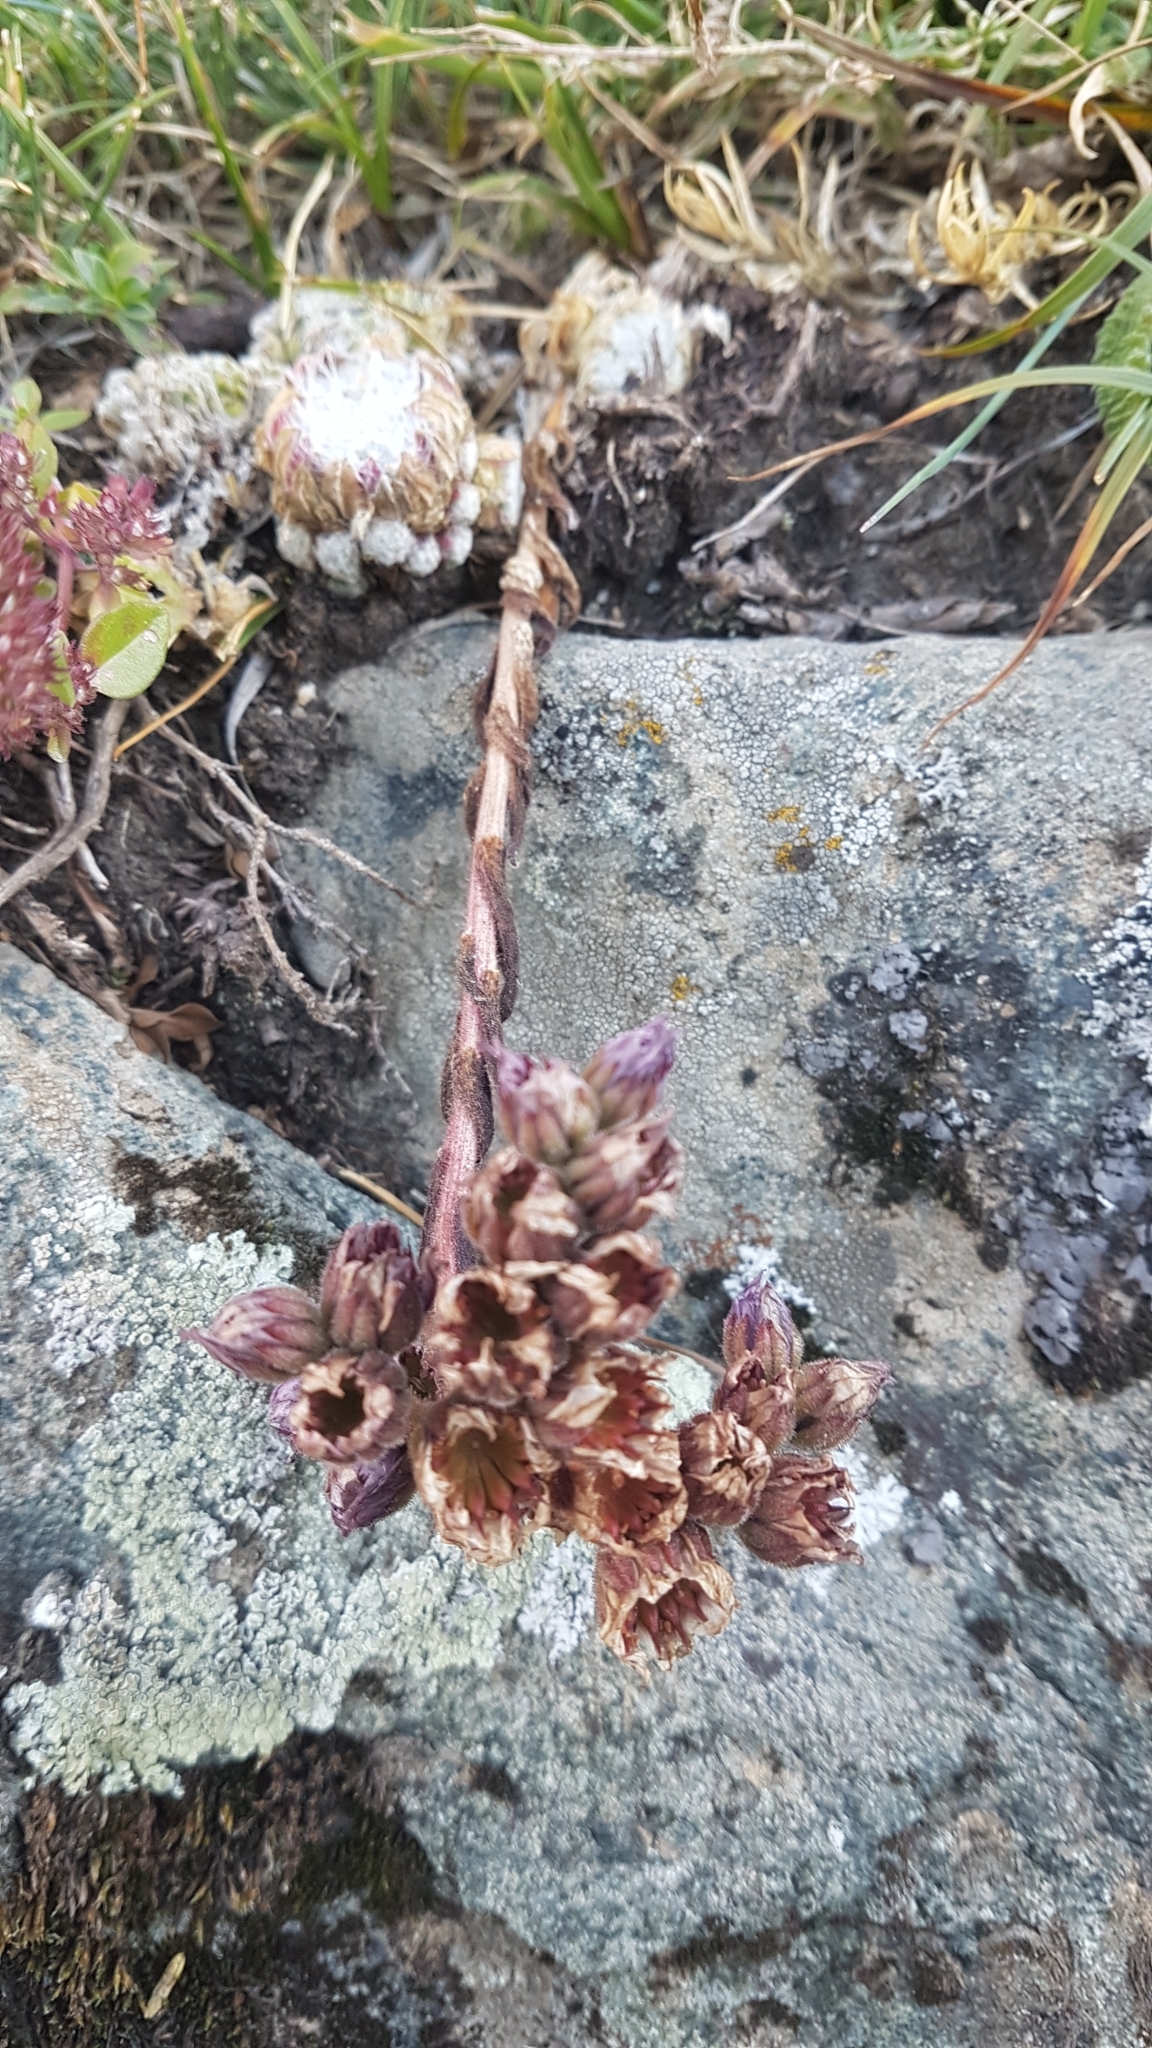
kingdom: Plantae
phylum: Tracheophyta
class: Magnoliopsida
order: Saxifragales
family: Crassulaceae
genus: Sempervivum
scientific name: Sempervivum arachnoideum
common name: Cobweb house-leek
